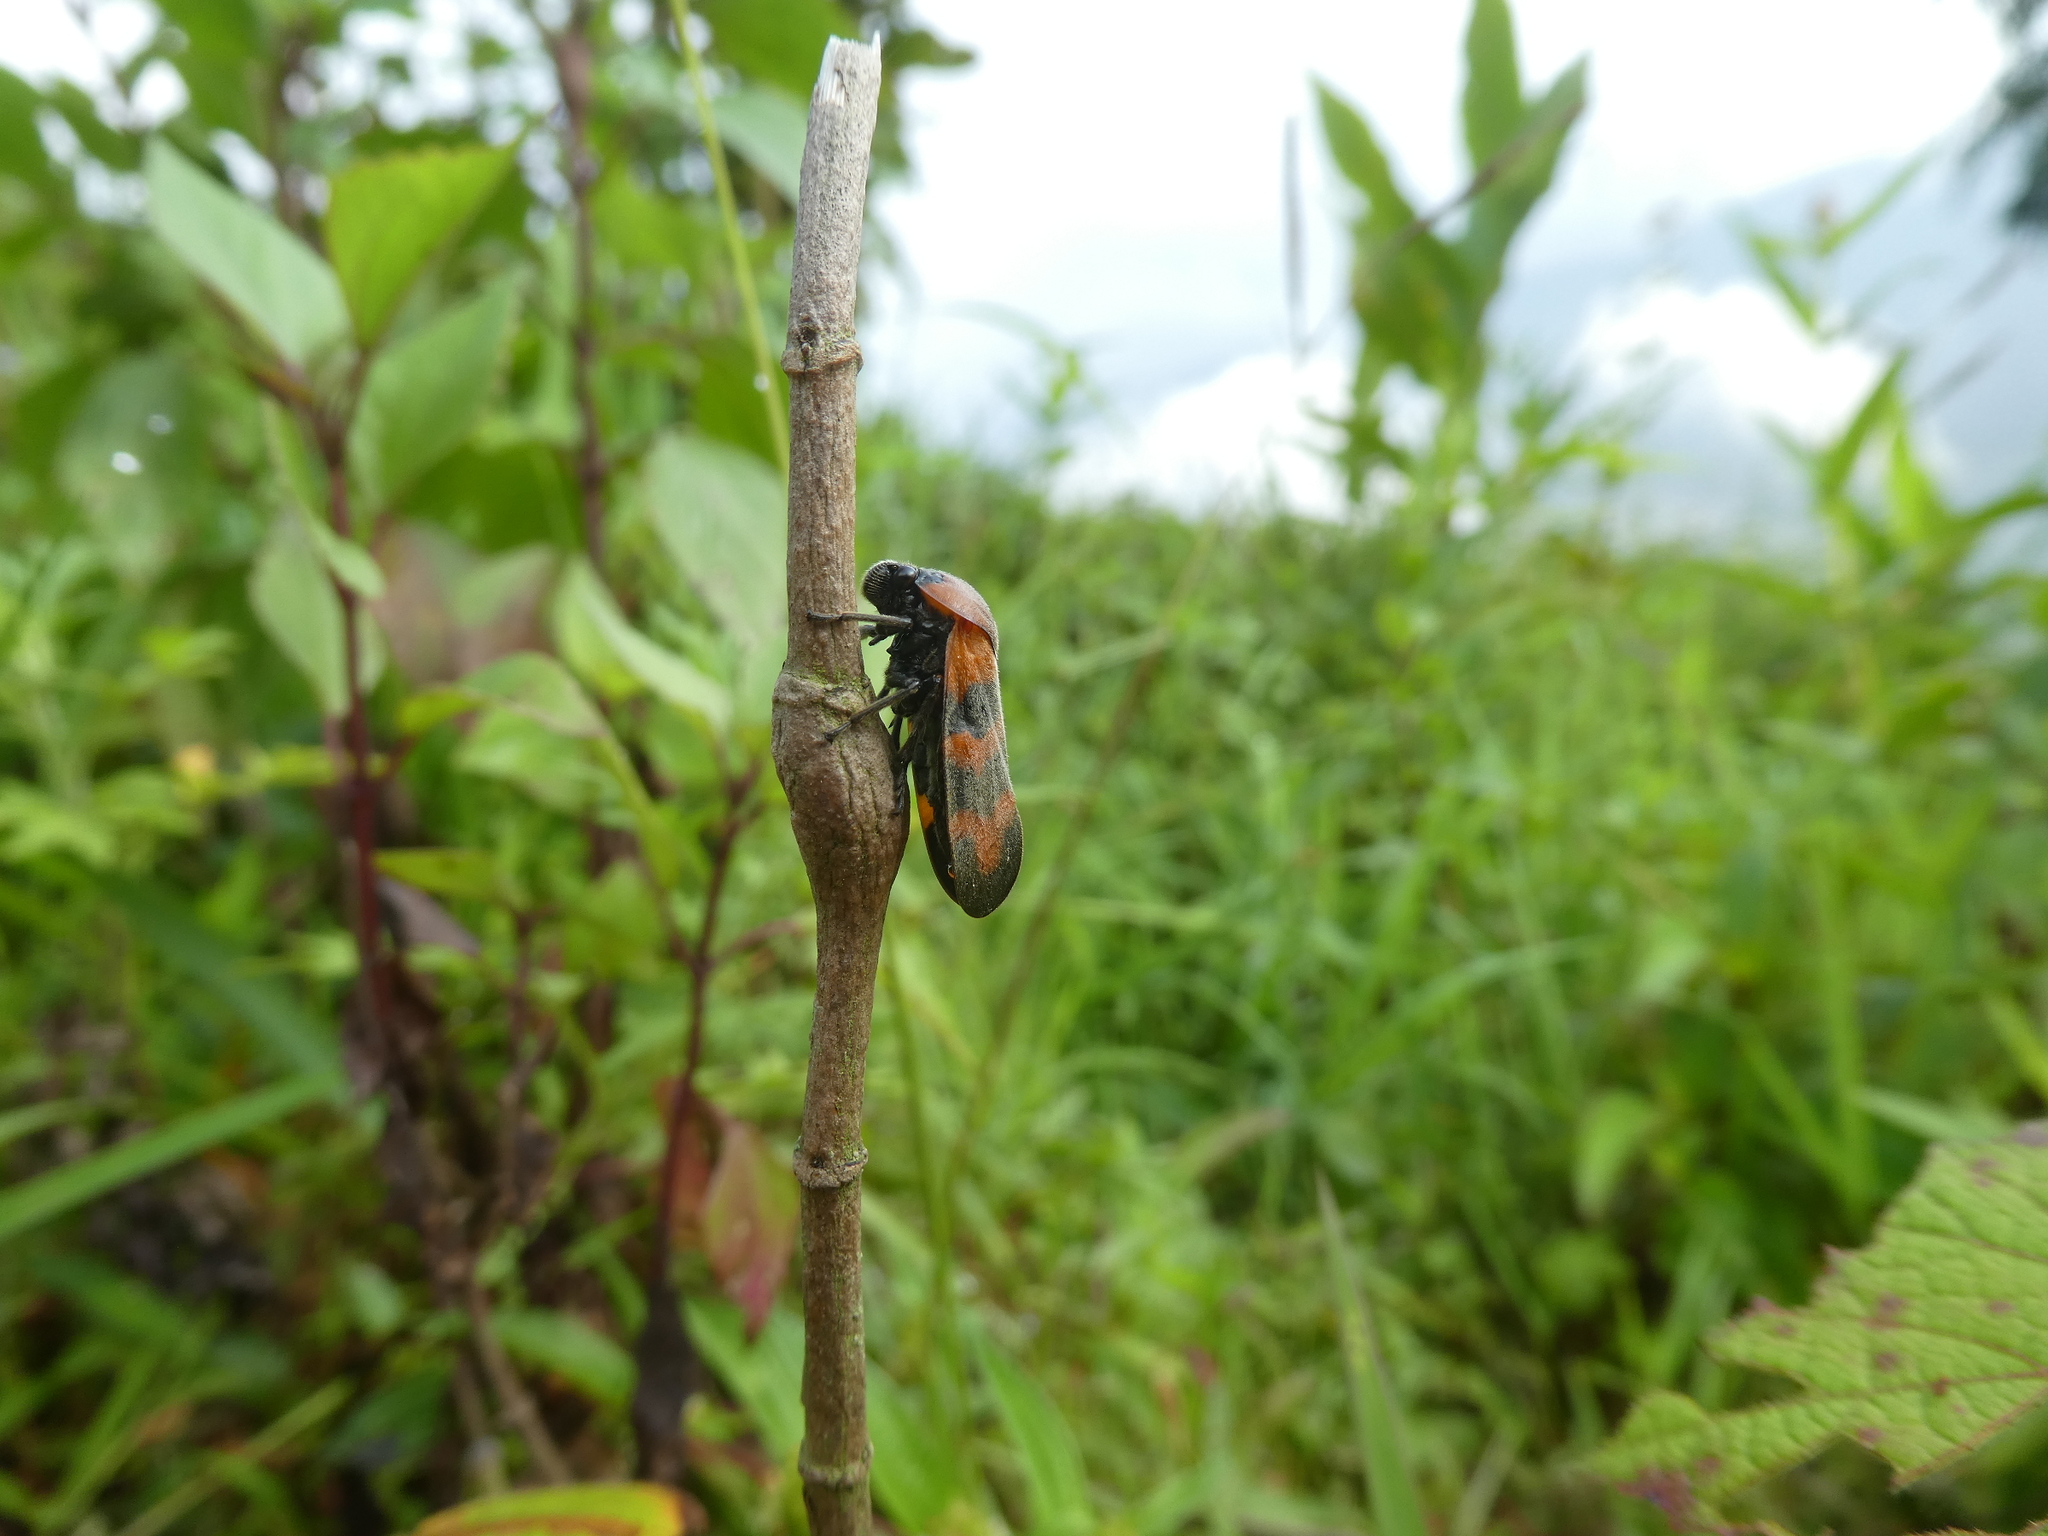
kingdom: Animalia
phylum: Arthropoda
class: Insecta
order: Hemiptera
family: Cercopidae
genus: Cosmoscarta
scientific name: Cosmoscarta dimidiata
